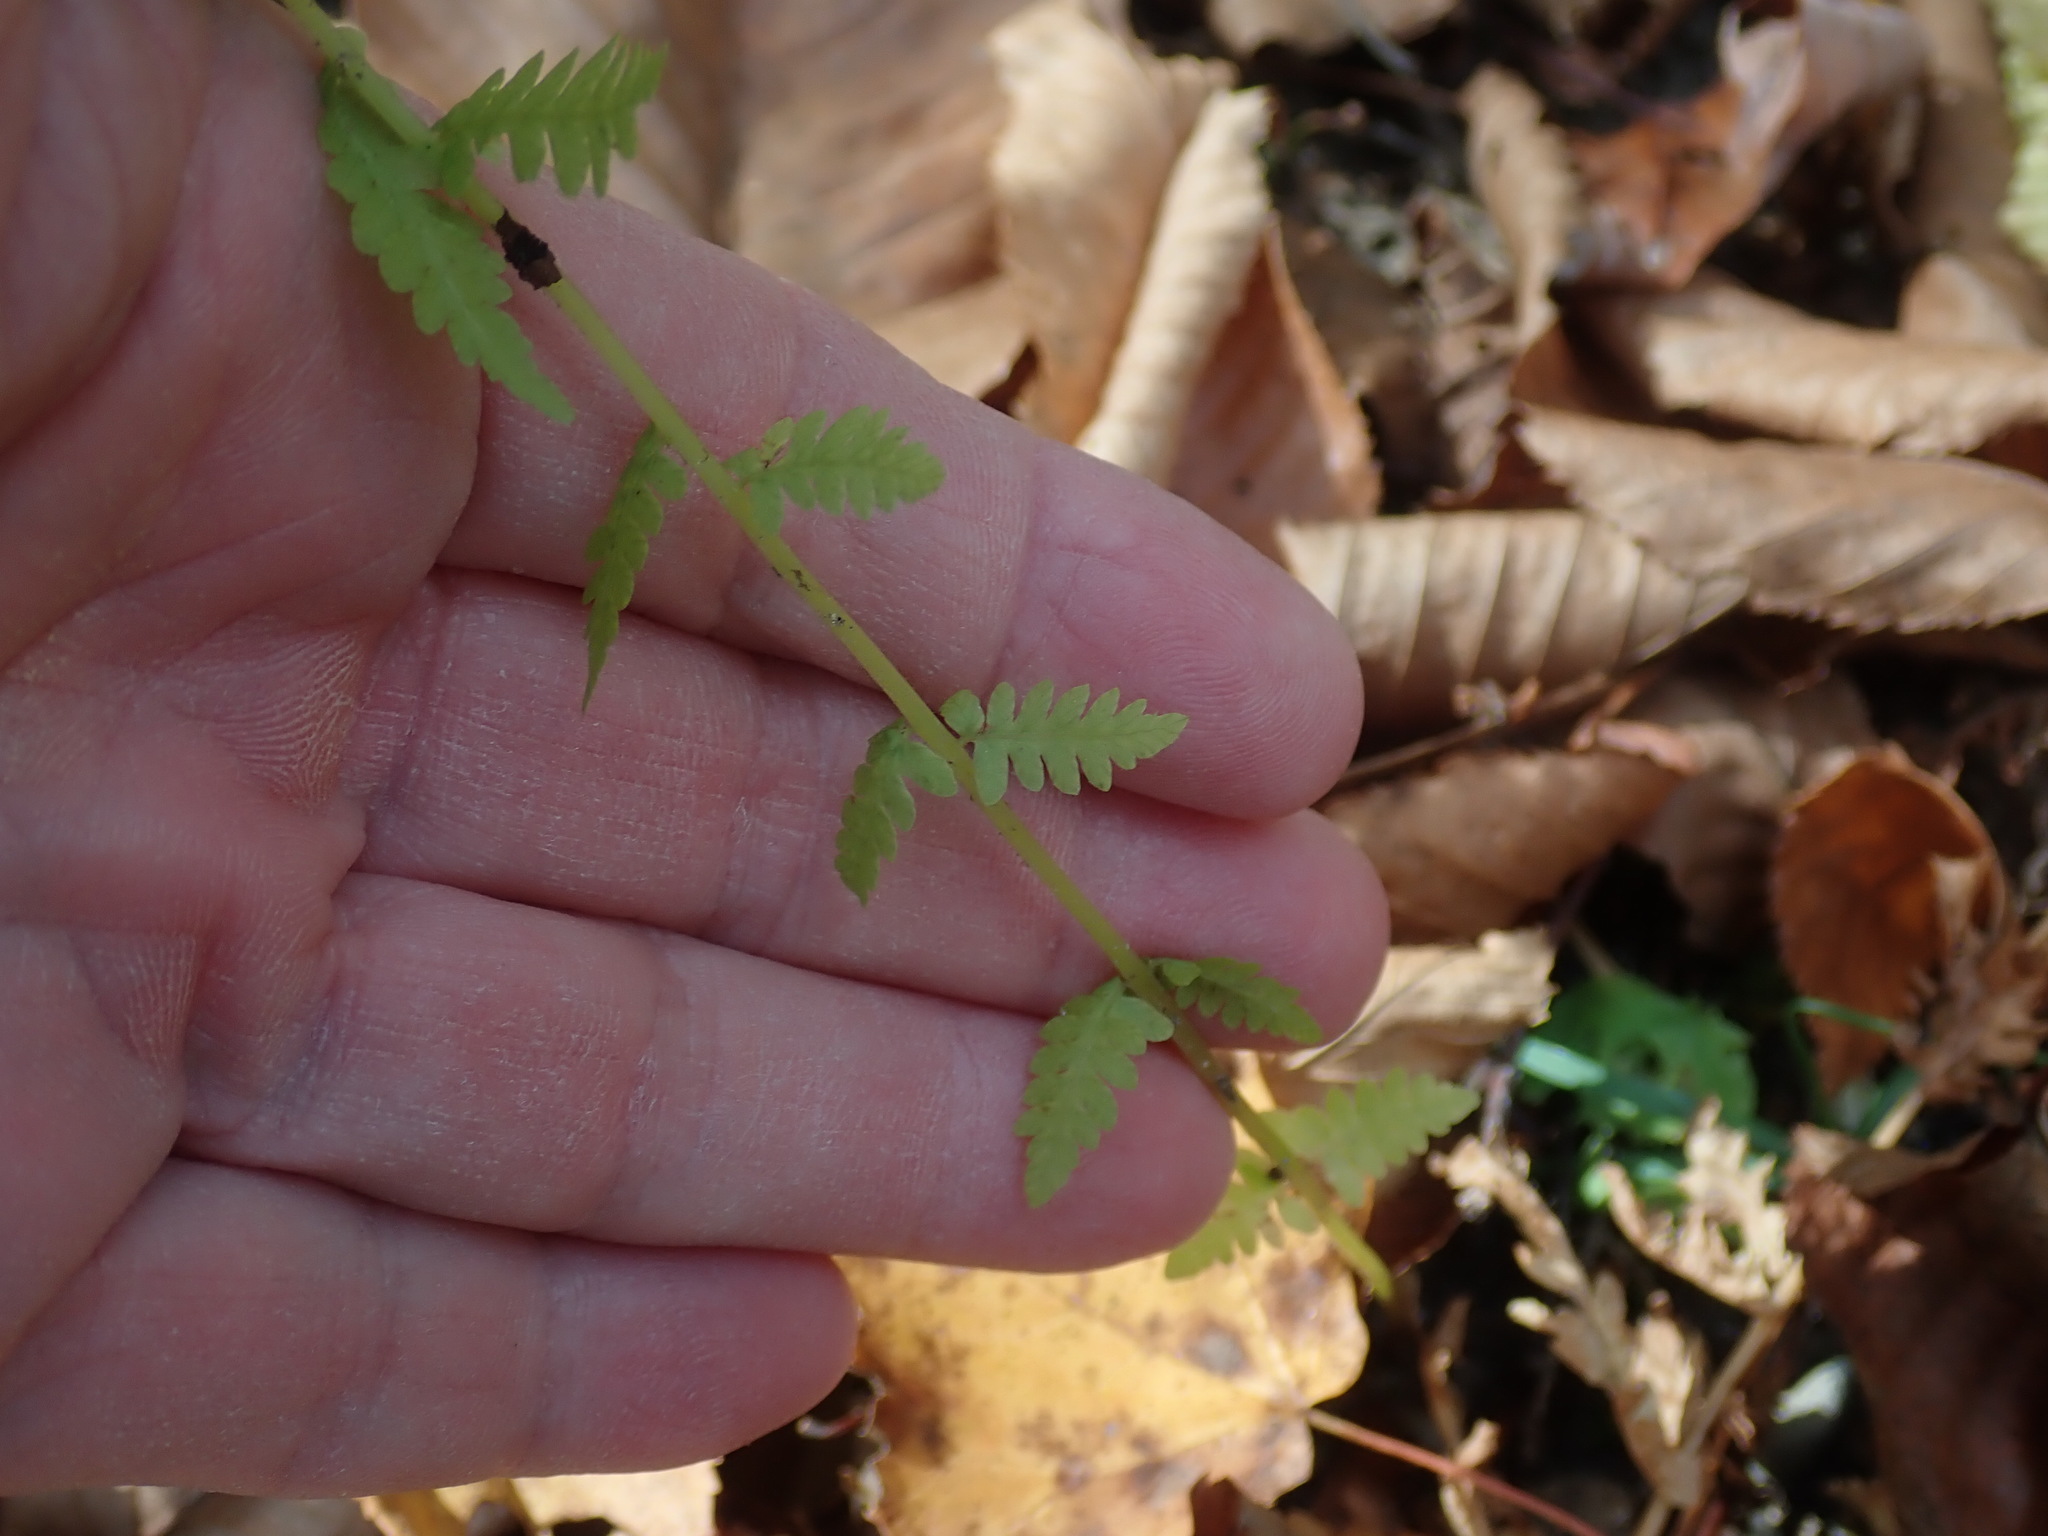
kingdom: Plantae
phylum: Tracheophyta
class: Polypodiopsida
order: Polypodiales
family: Thelypteridaceae
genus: Amauropelta
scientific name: Amauropelta noveboracensis
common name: New york fern
